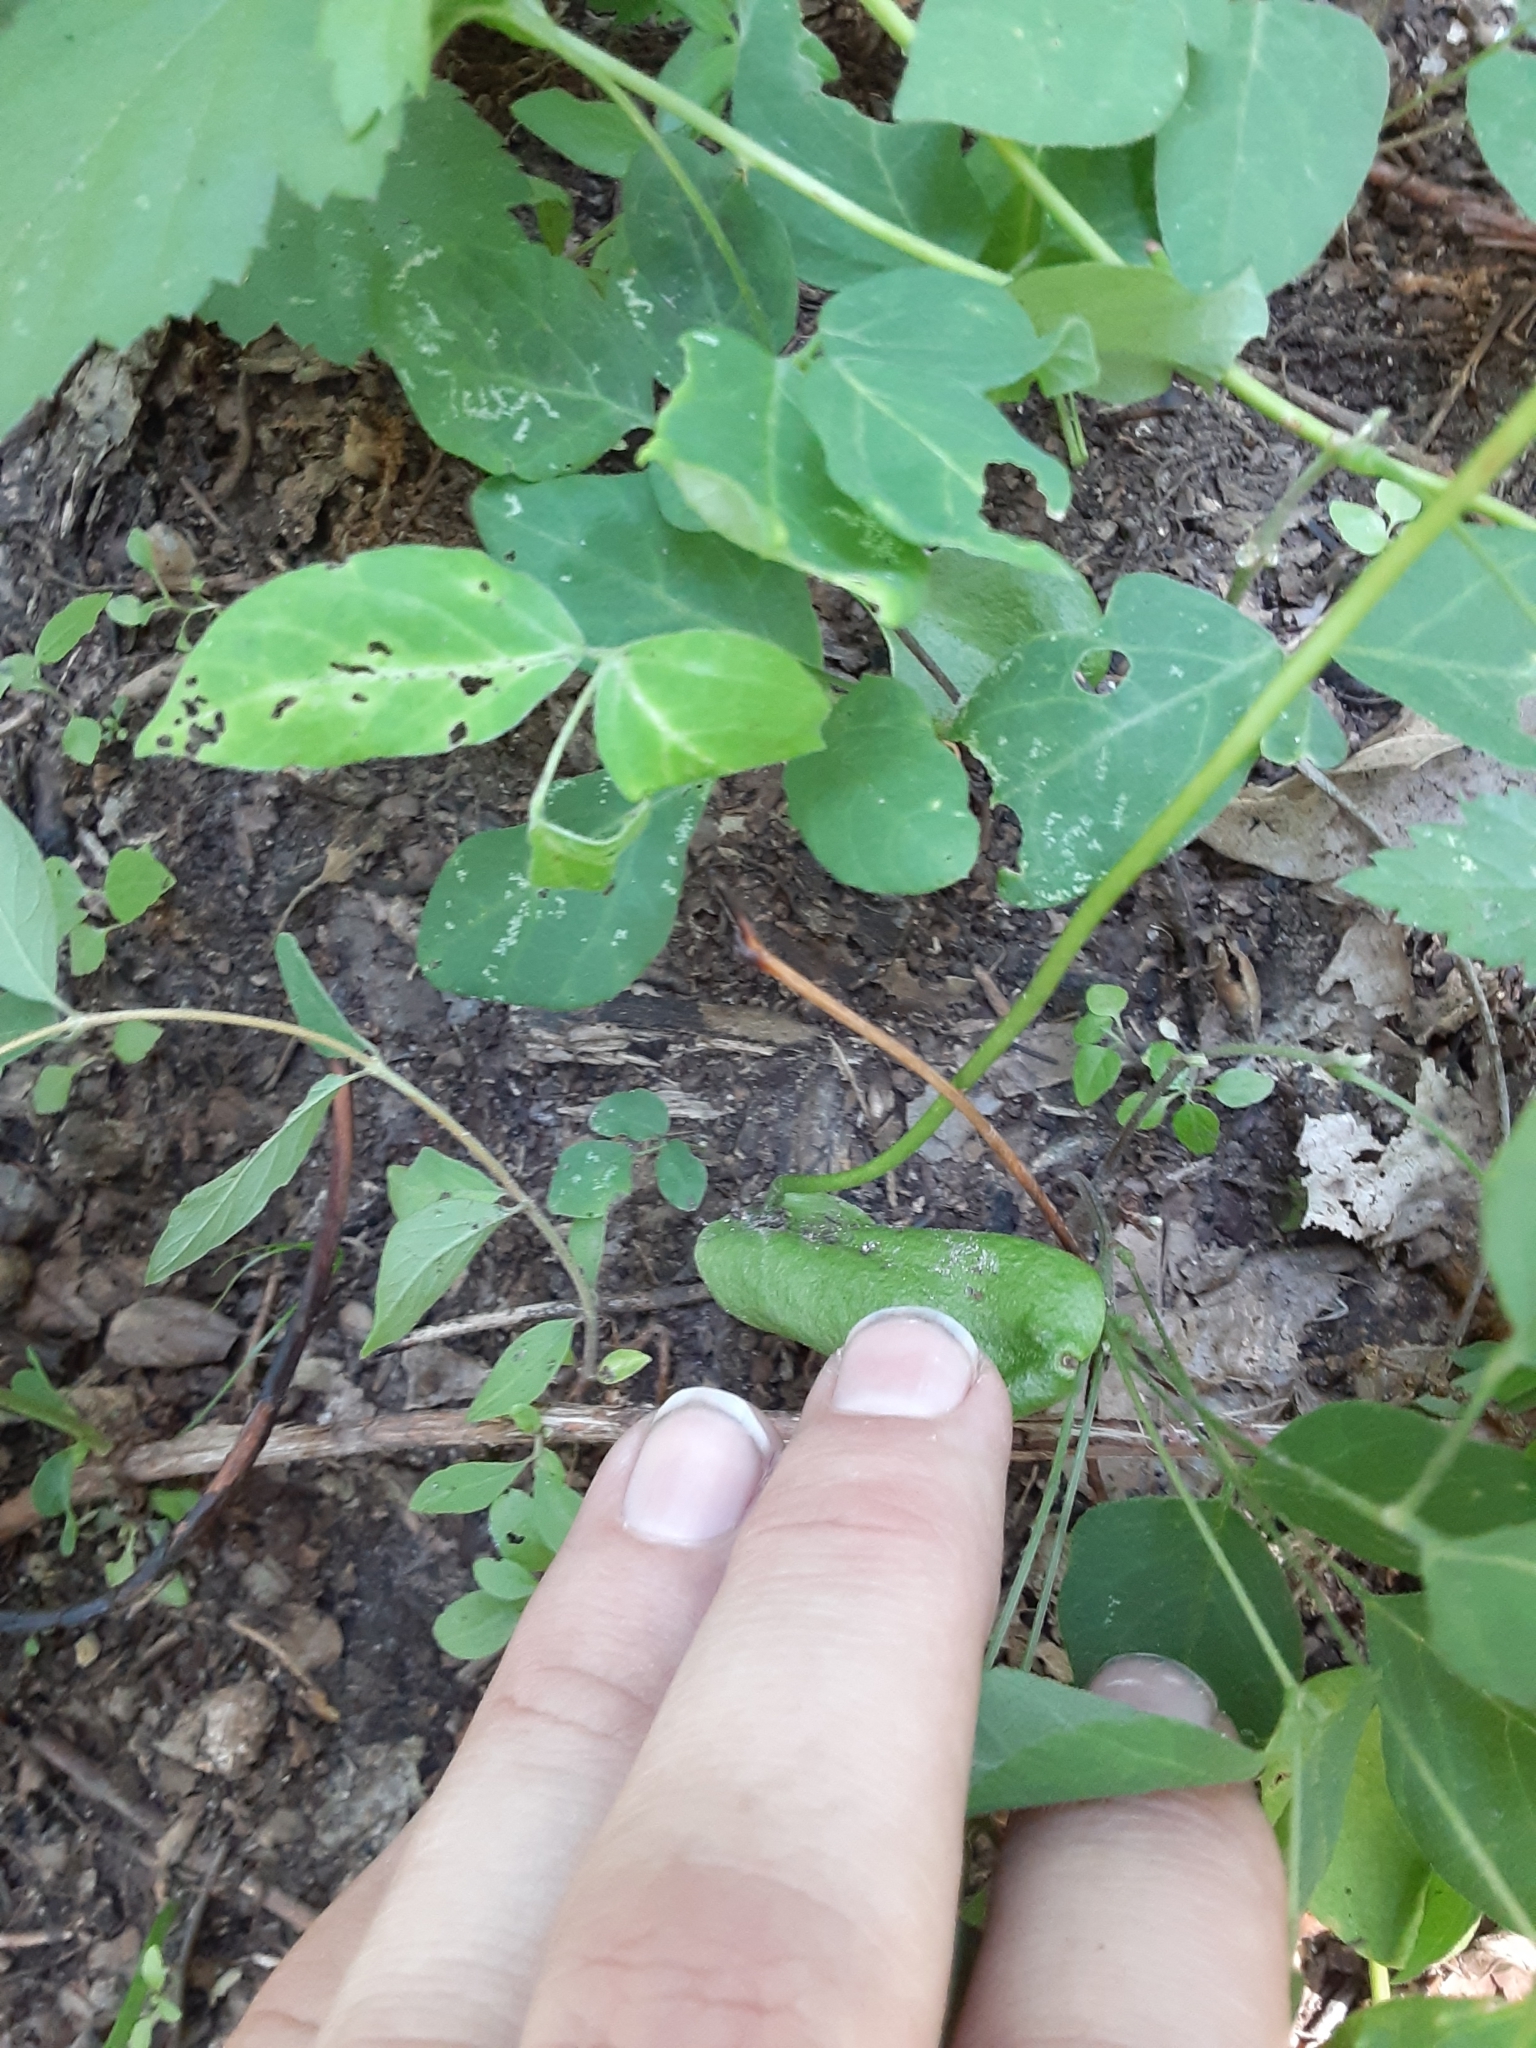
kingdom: Plantae
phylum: Tracheophyta
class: Polypodiopsida
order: Ophioglossales
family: Ophioglossaceae
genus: Ophioglossum
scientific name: Ophioglossum vulgatum
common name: Adder's-tongue
